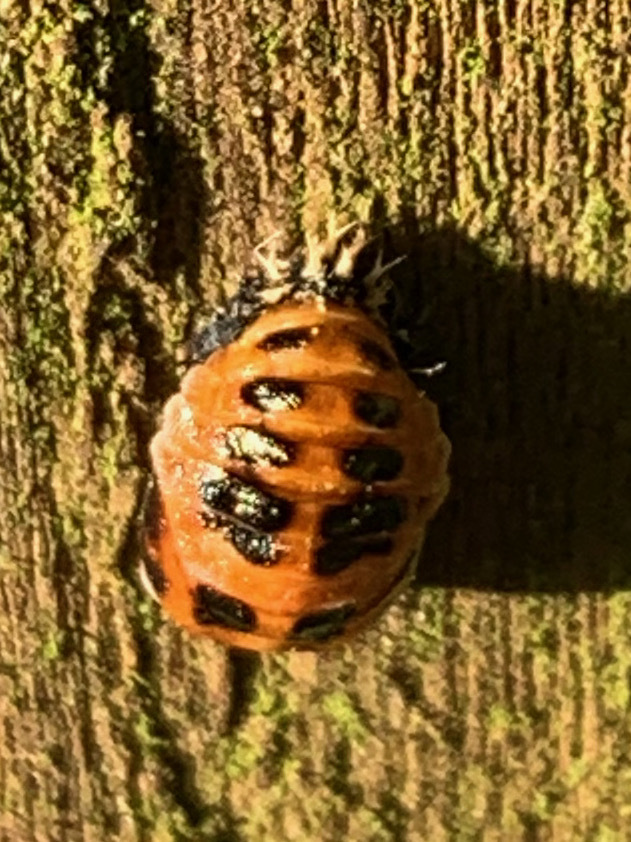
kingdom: Animalia
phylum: Arthropoda
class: Insecta
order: Coleoptera
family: Coccinellidae
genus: Harmonia
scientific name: Harmonia axyridis
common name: Harlequin ladybird
